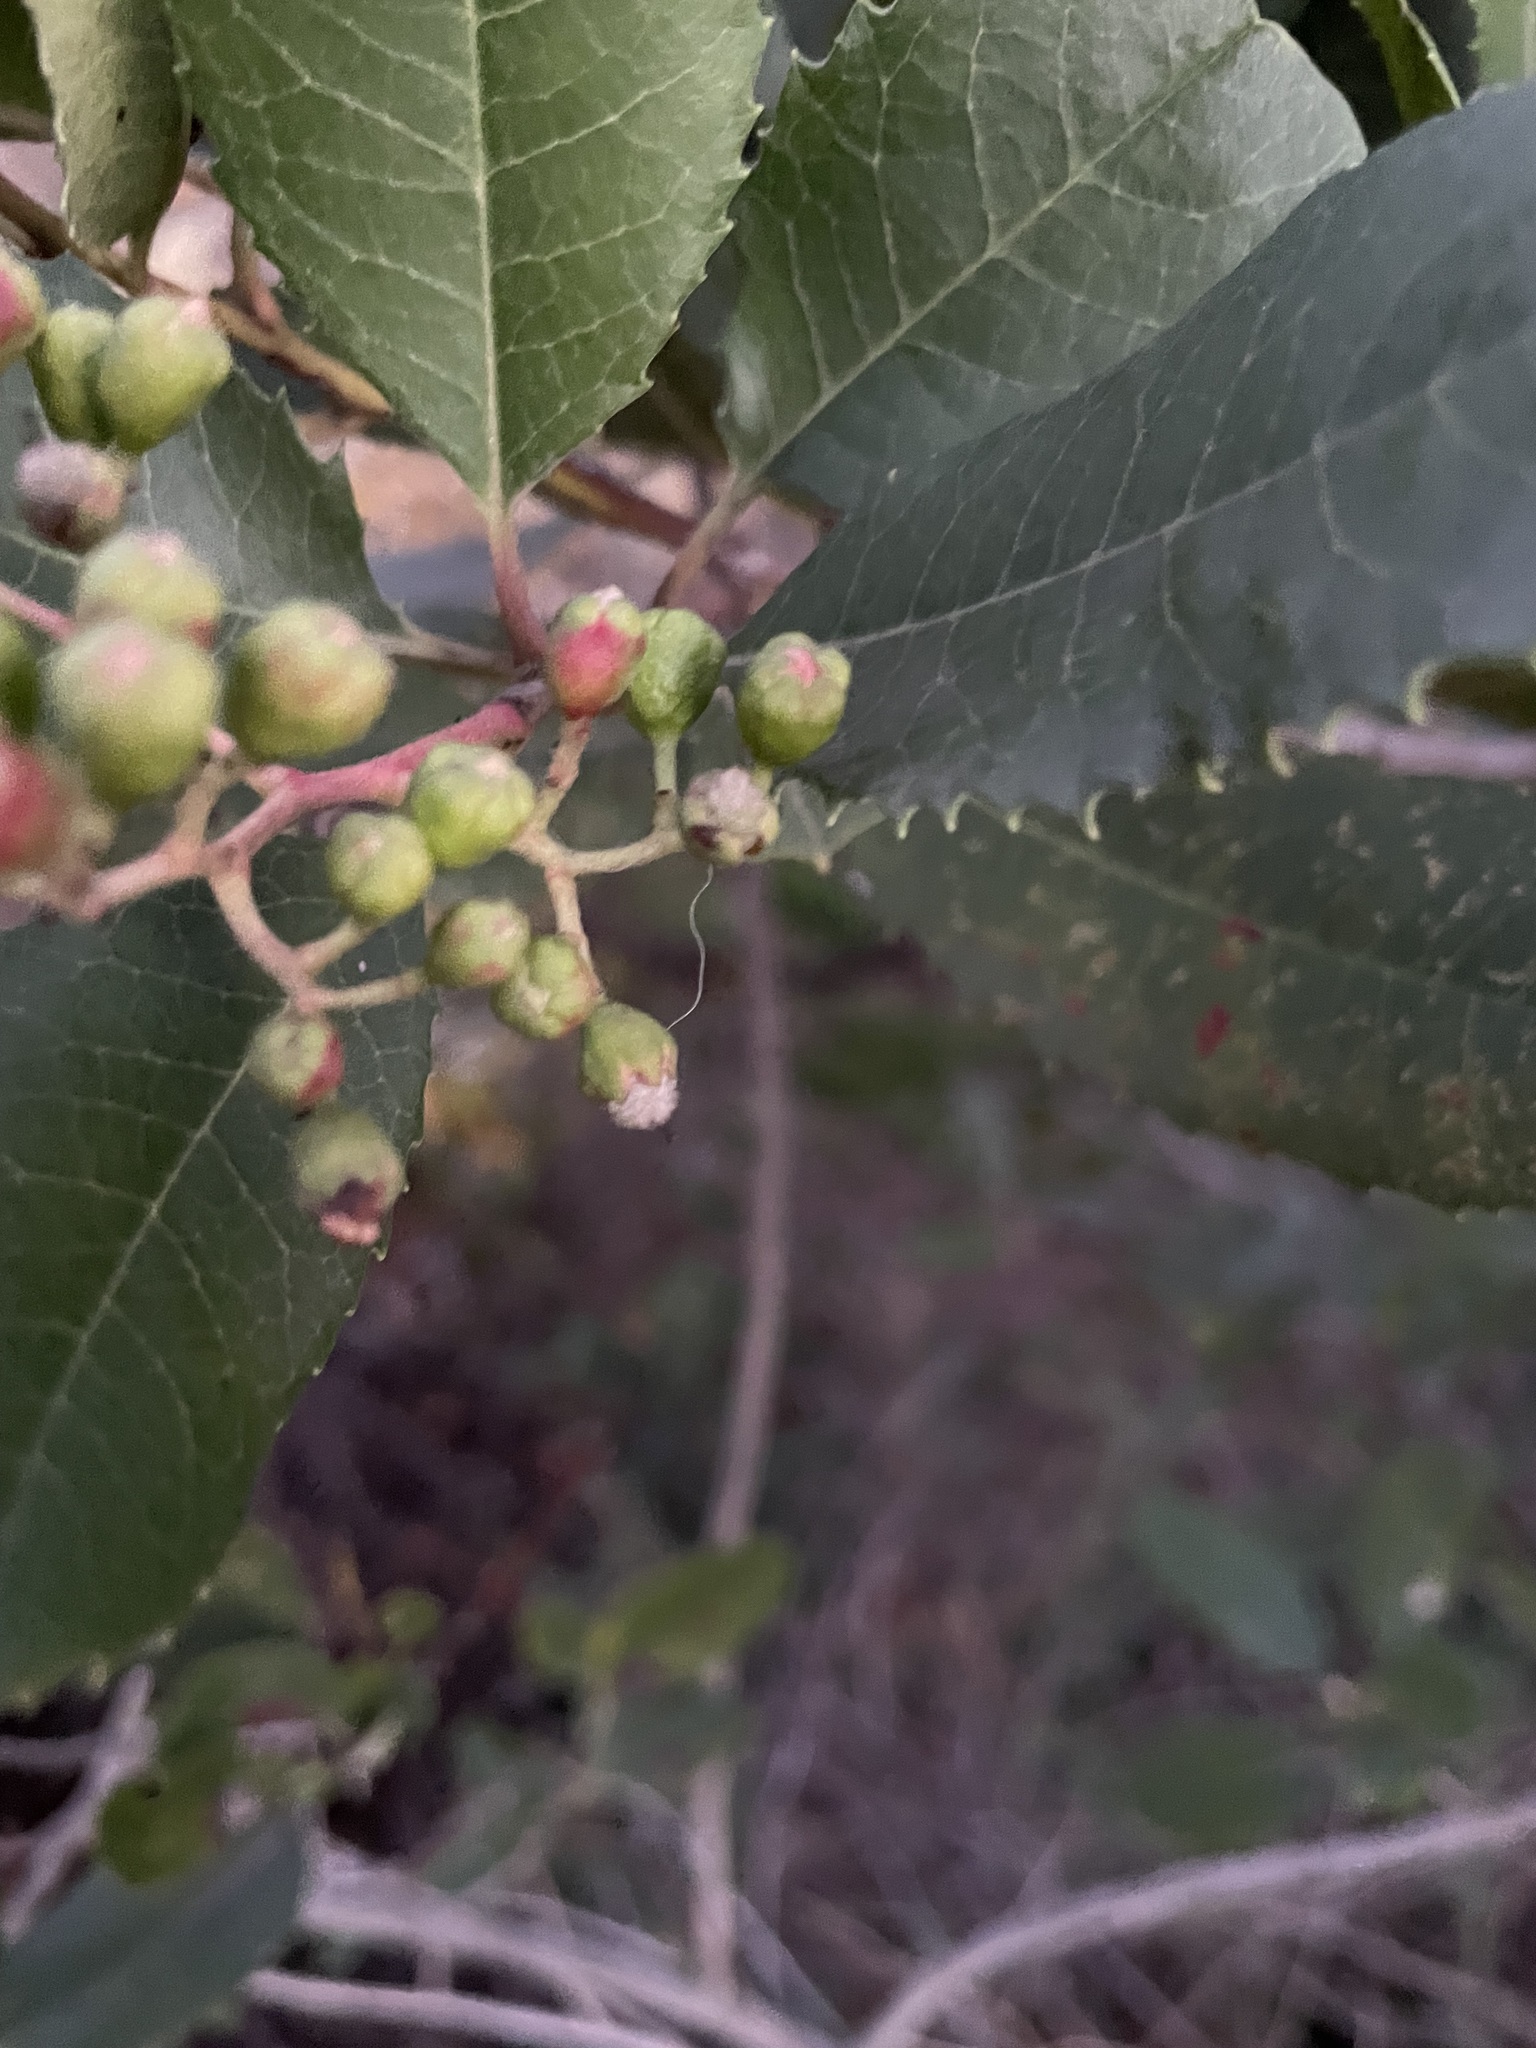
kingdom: Animalia
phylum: Arthropoda
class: Insecta
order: Diptera
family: Cecidomyiidae
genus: Asphondylia
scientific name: Asphondylia photiniae
